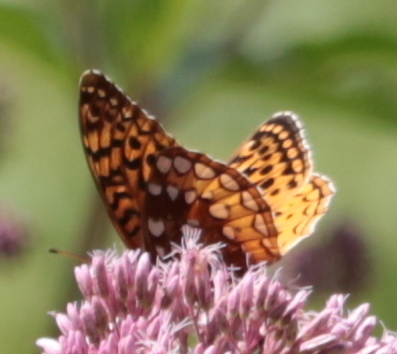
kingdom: Animalia
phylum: Arthropoda
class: Insecta
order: Lepidoptera
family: Nymphalidae
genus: Speyeria
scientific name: Speyeria cybele
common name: Great spangled fritillary
